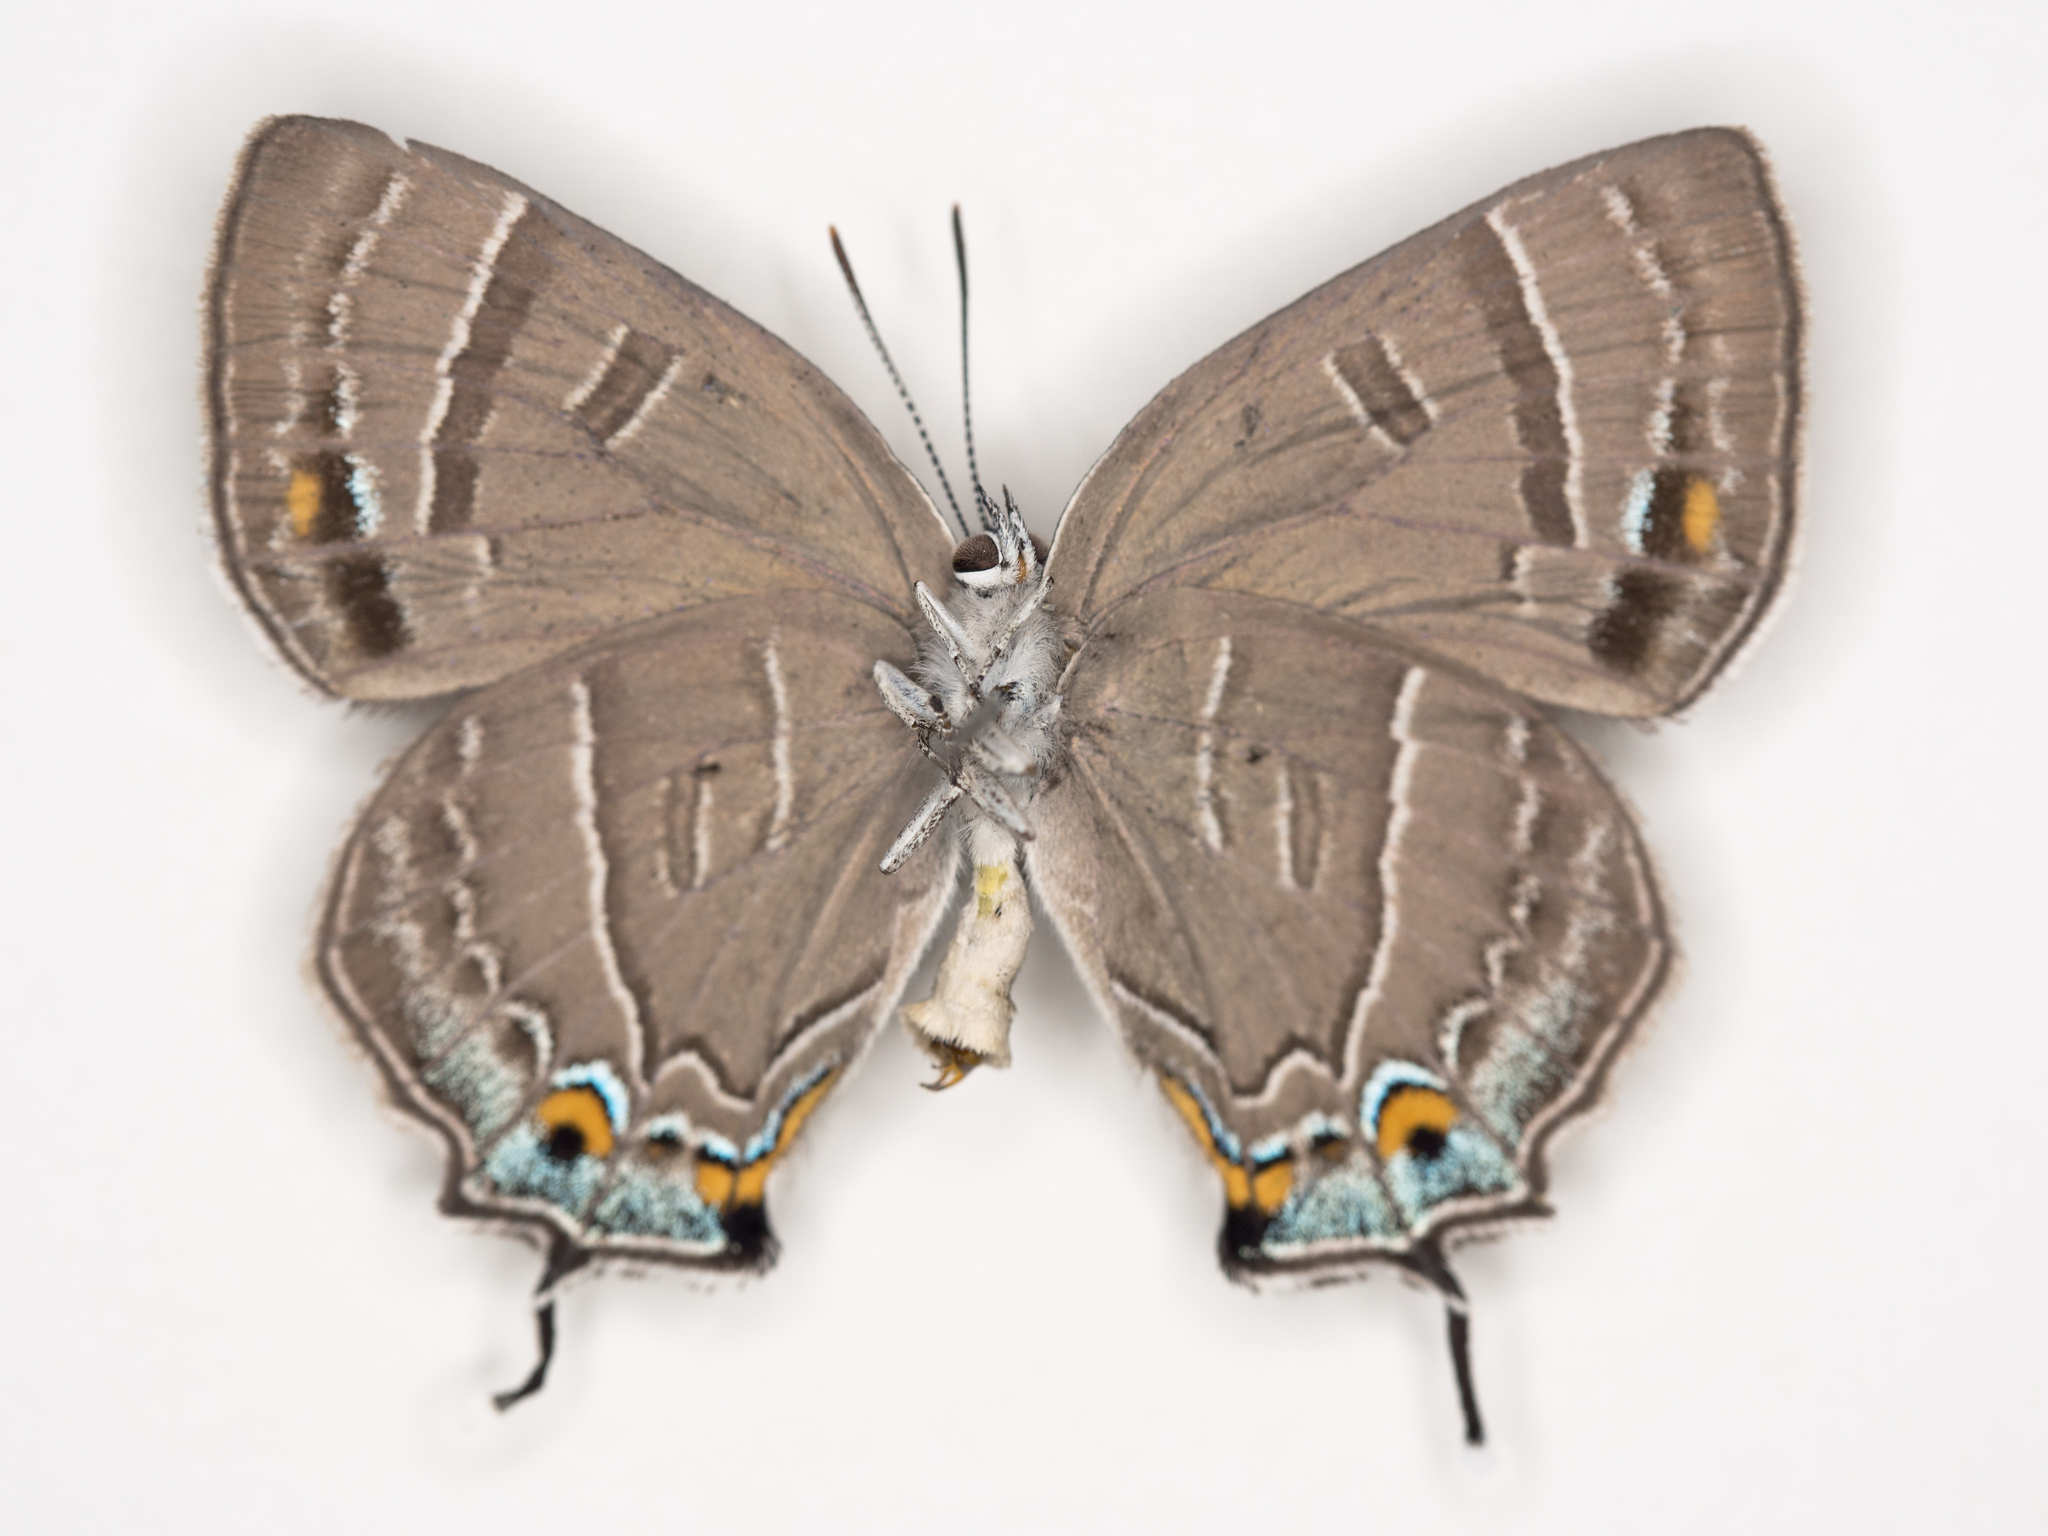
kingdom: Animalia
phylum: Arthropoda
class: Insecta
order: Lepidoptera
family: Lycaenidae
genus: Hypaurotis
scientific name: Hypaurotis crysalus
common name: Colorado hairstreak
